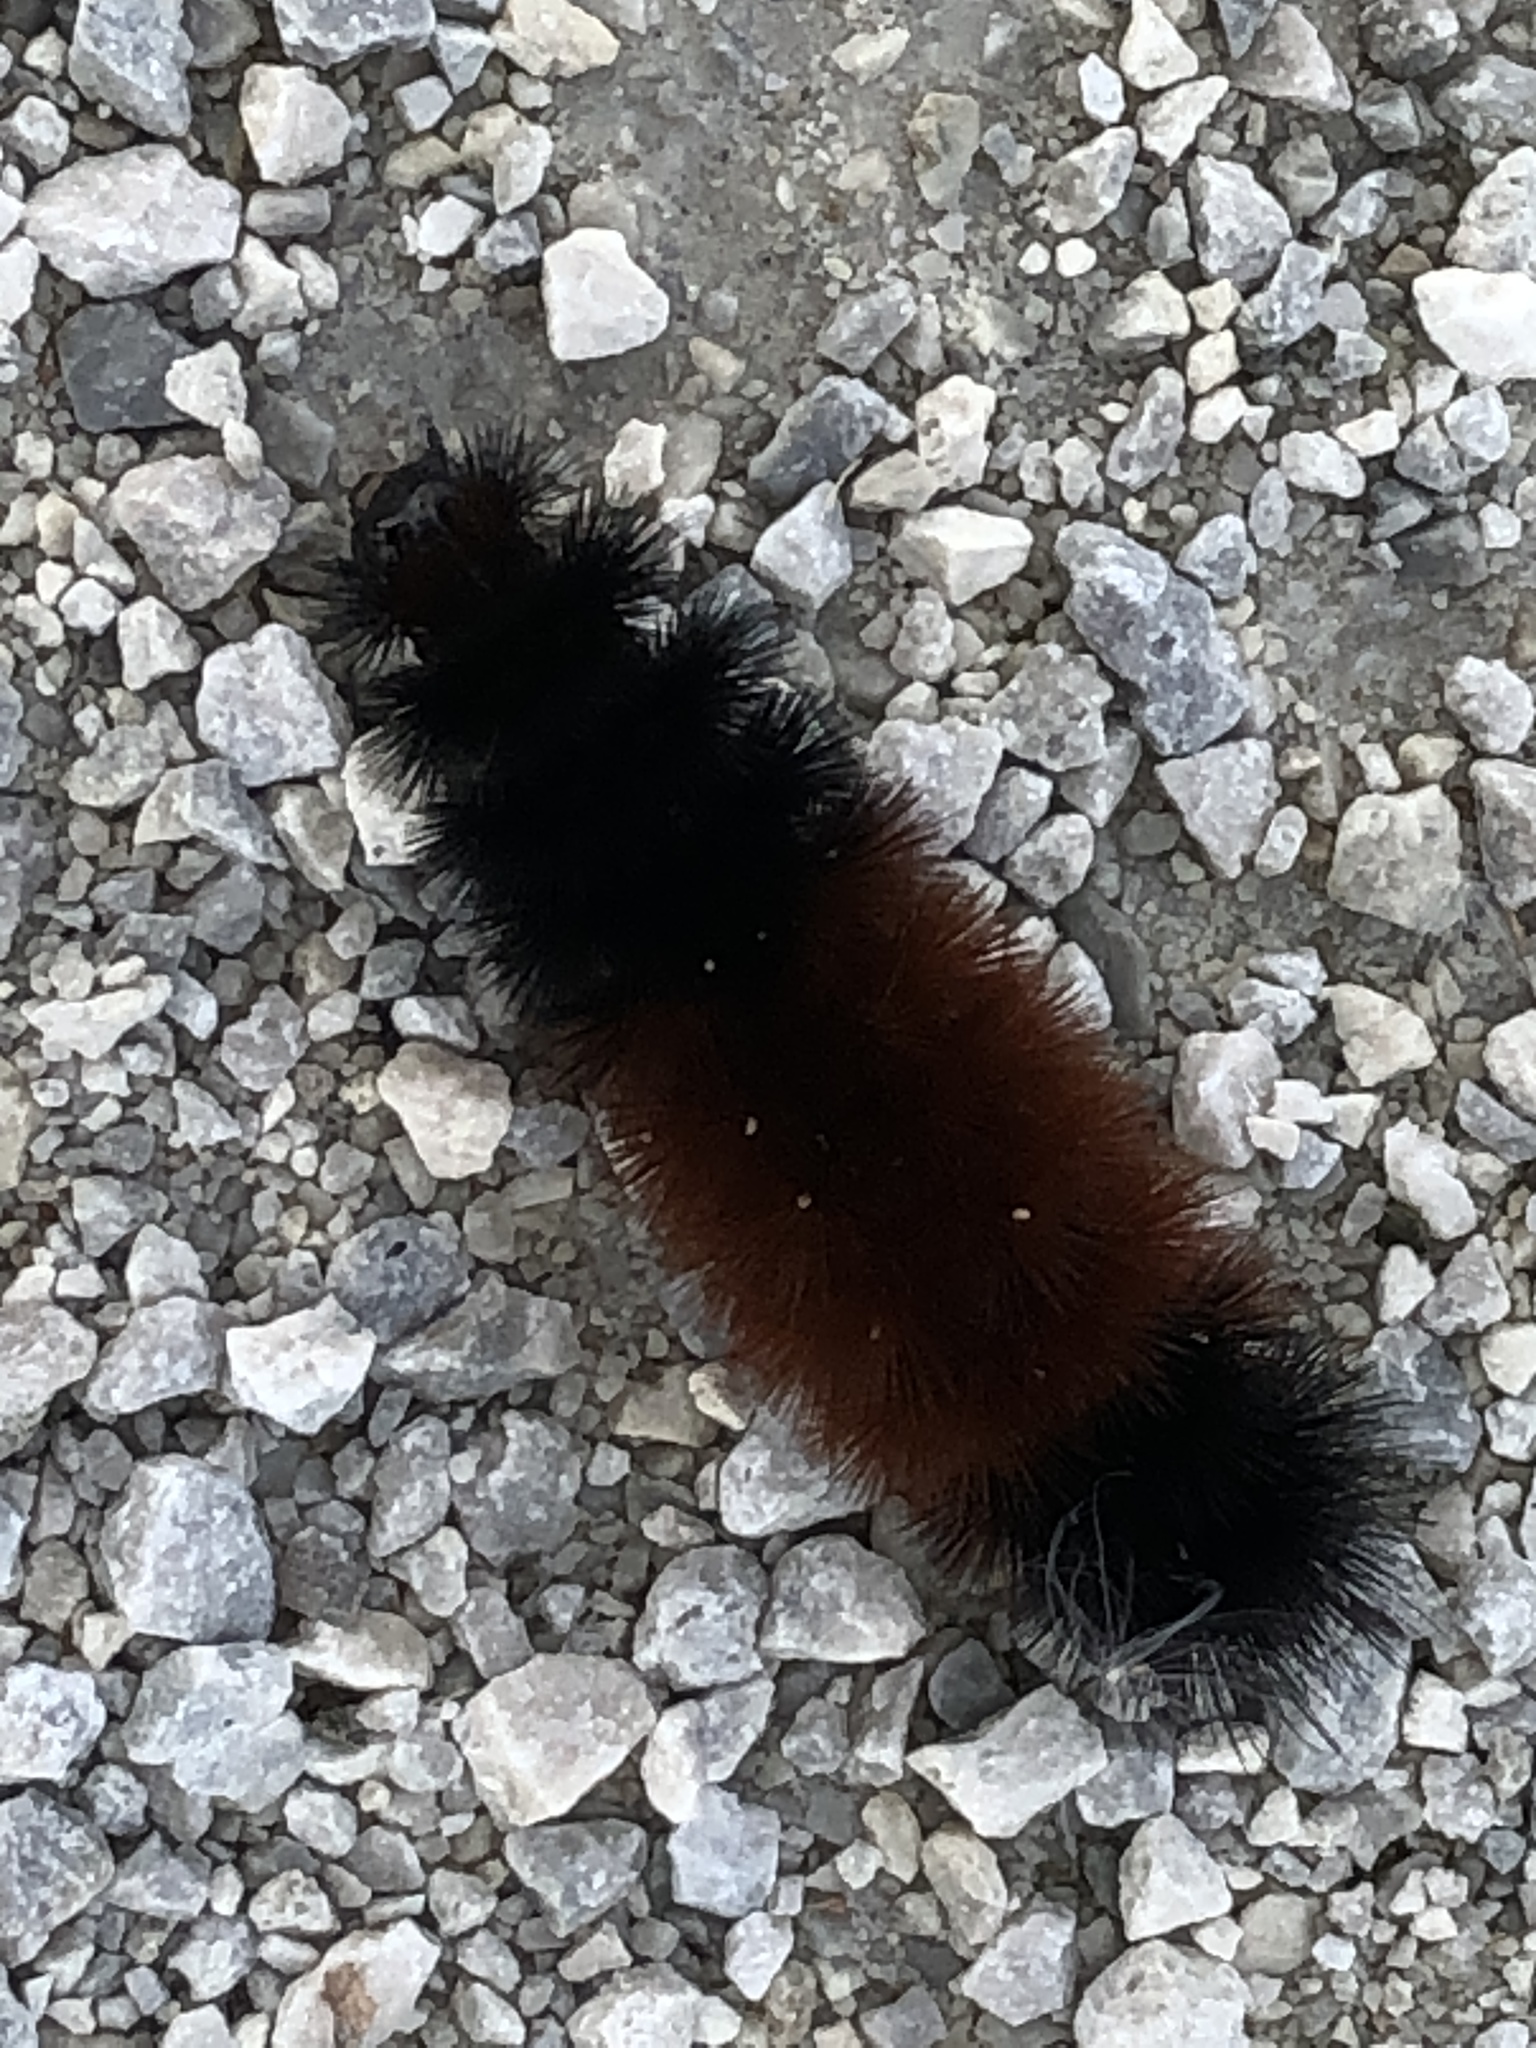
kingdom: Animalia
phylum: Arthropoda
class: Insecta
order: Lepidoptera
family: Erebidae
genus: Pyrrharctia
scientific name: Pyrrharctia isabella
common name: Isabella tiger moth
